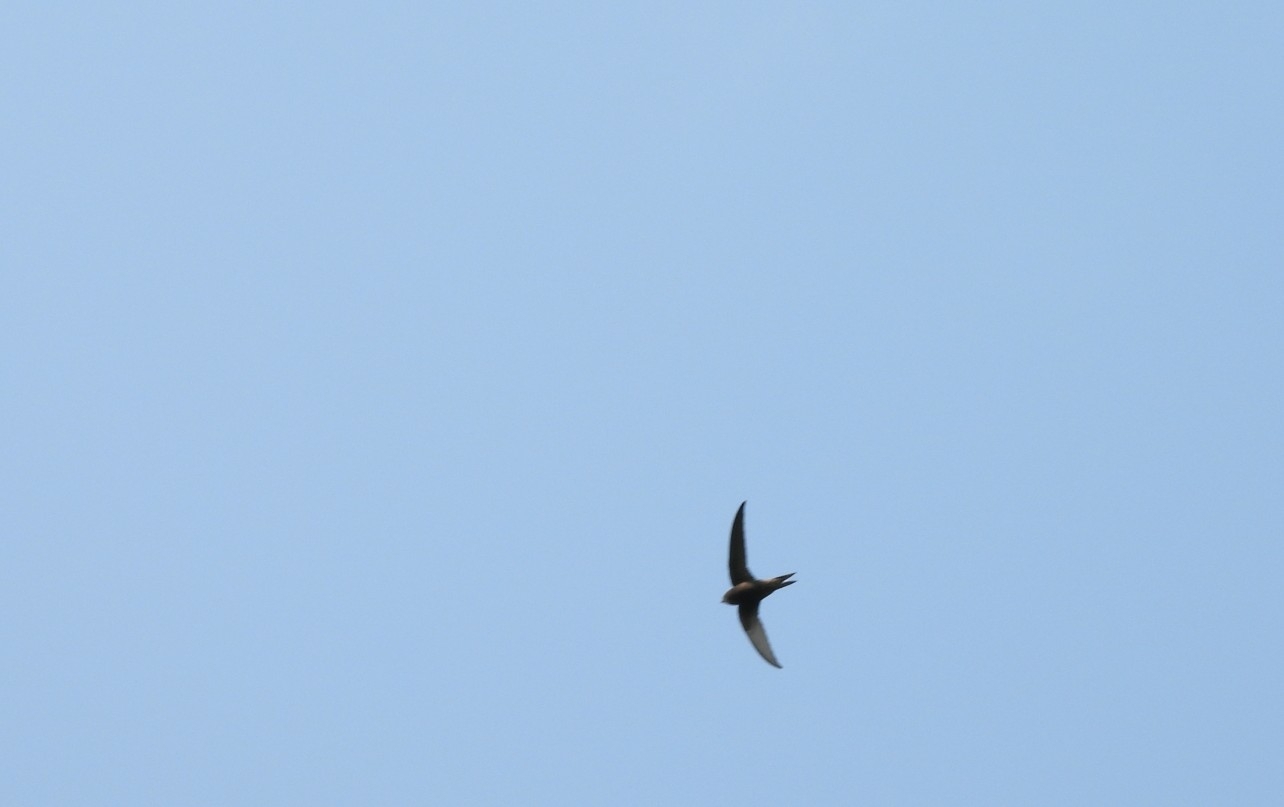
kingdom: Animalia
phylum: Chordata
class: Aves
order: Apodiformes
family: Apodidae
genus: Apus
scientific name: Apus apus
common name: Common swift
